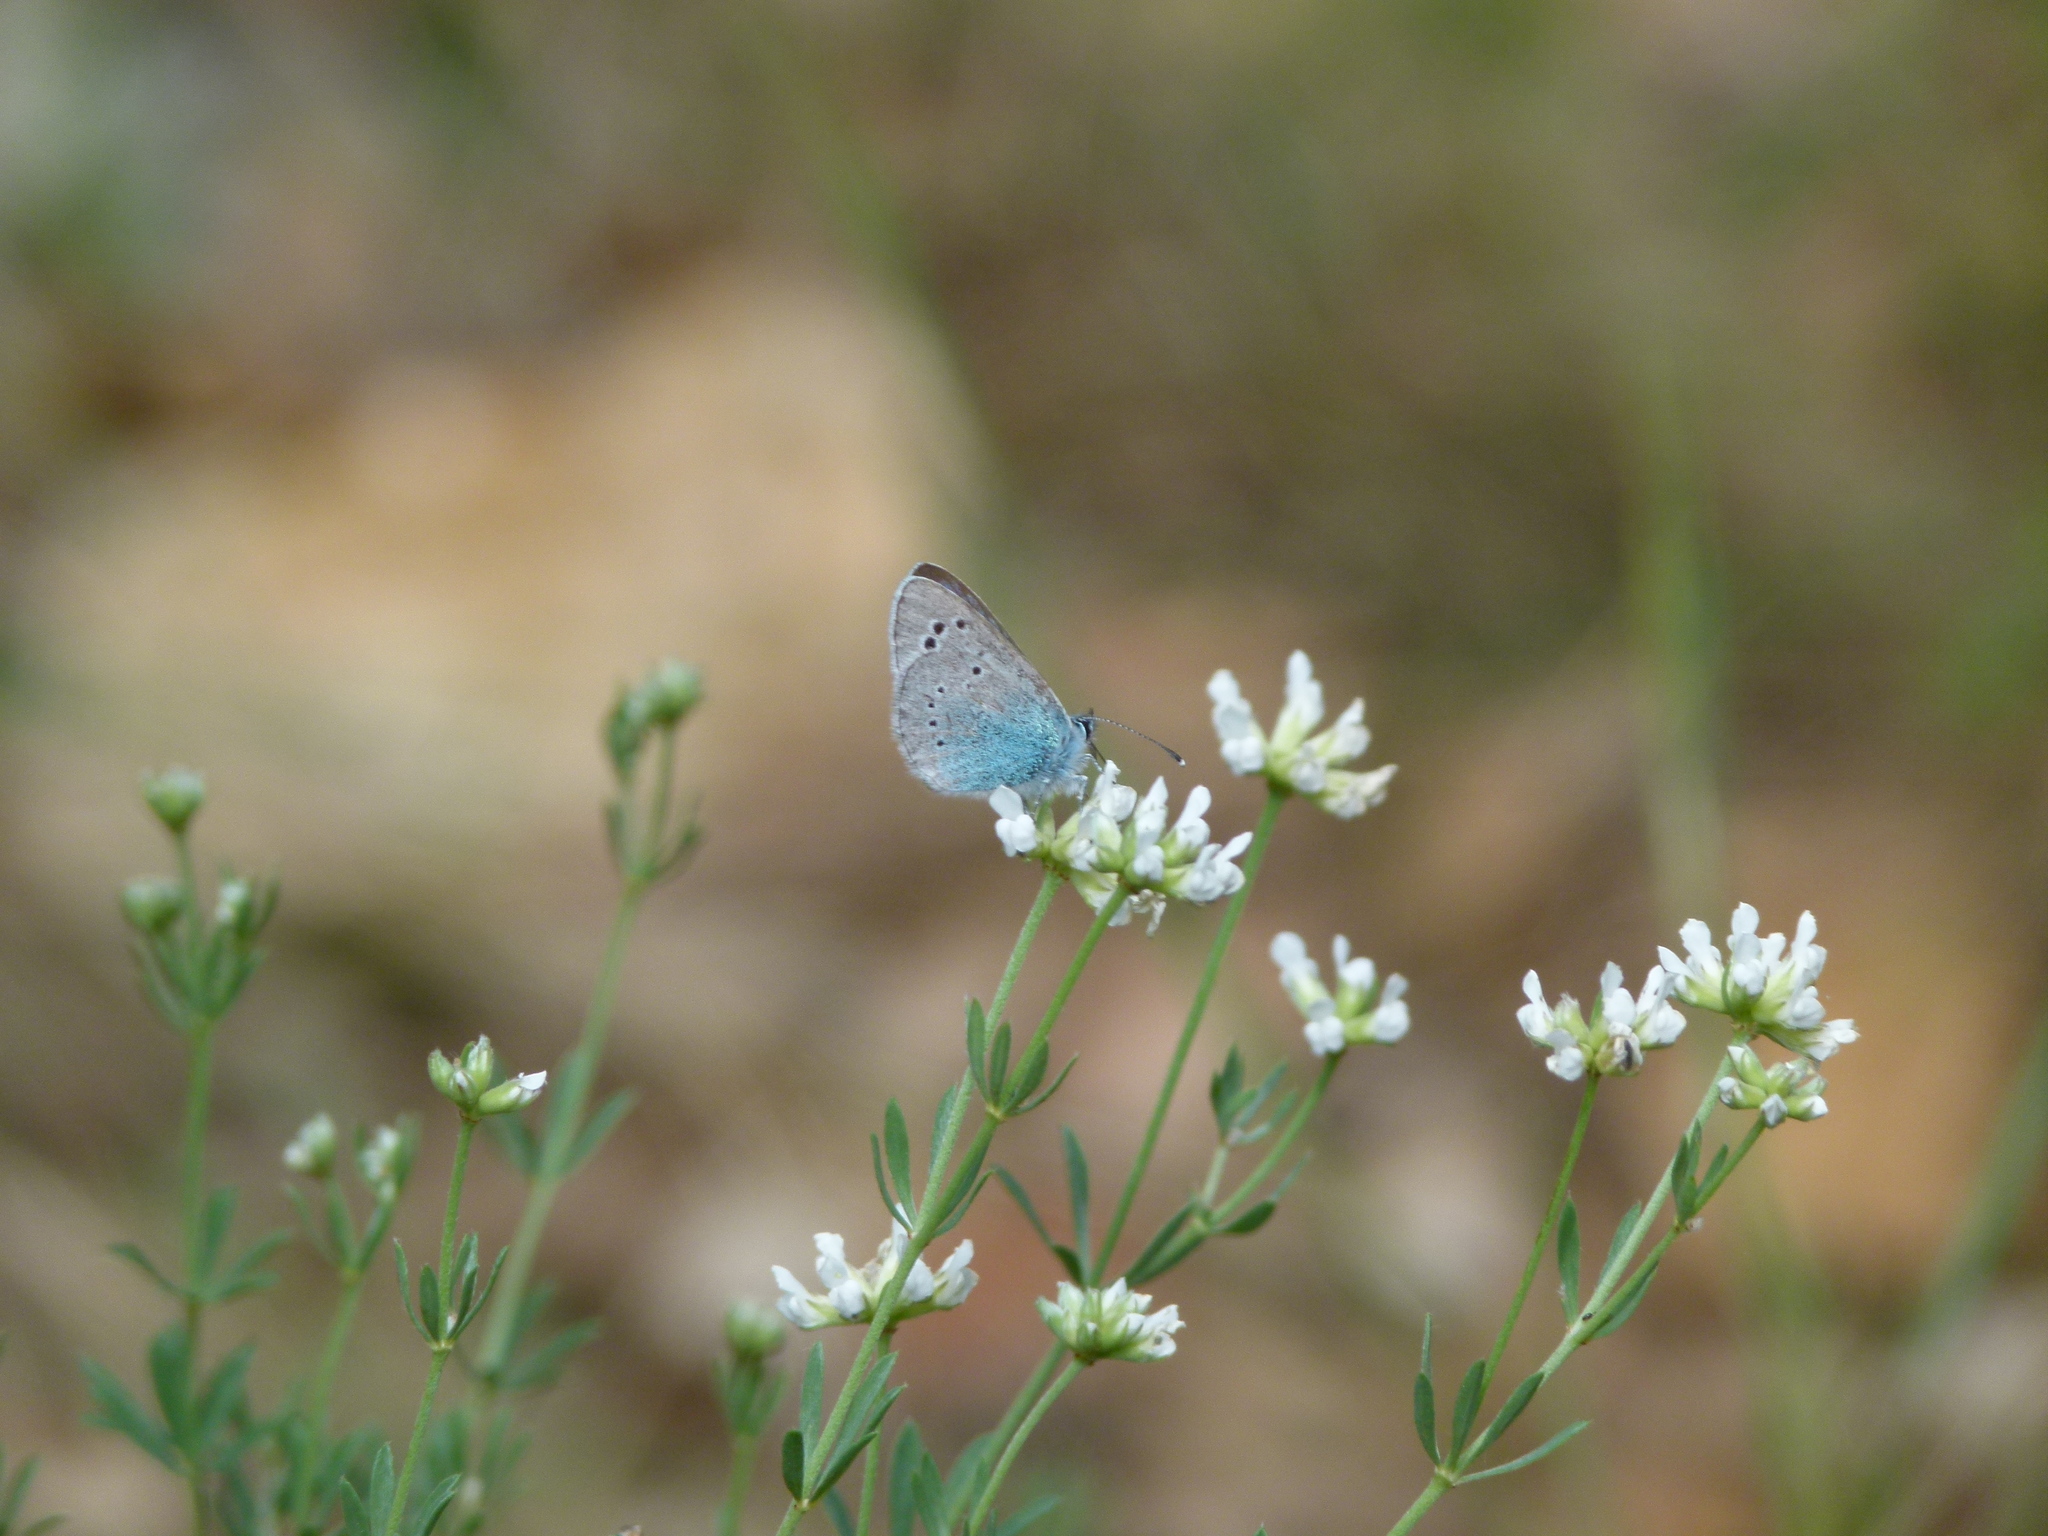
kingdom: Animalia
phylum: Arthropoda
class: Insecta
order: Lepidoptera
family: Lycaenidae
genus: Glaucopsyche
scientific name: Glaucopsyche alexis
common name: Green-underside blue
